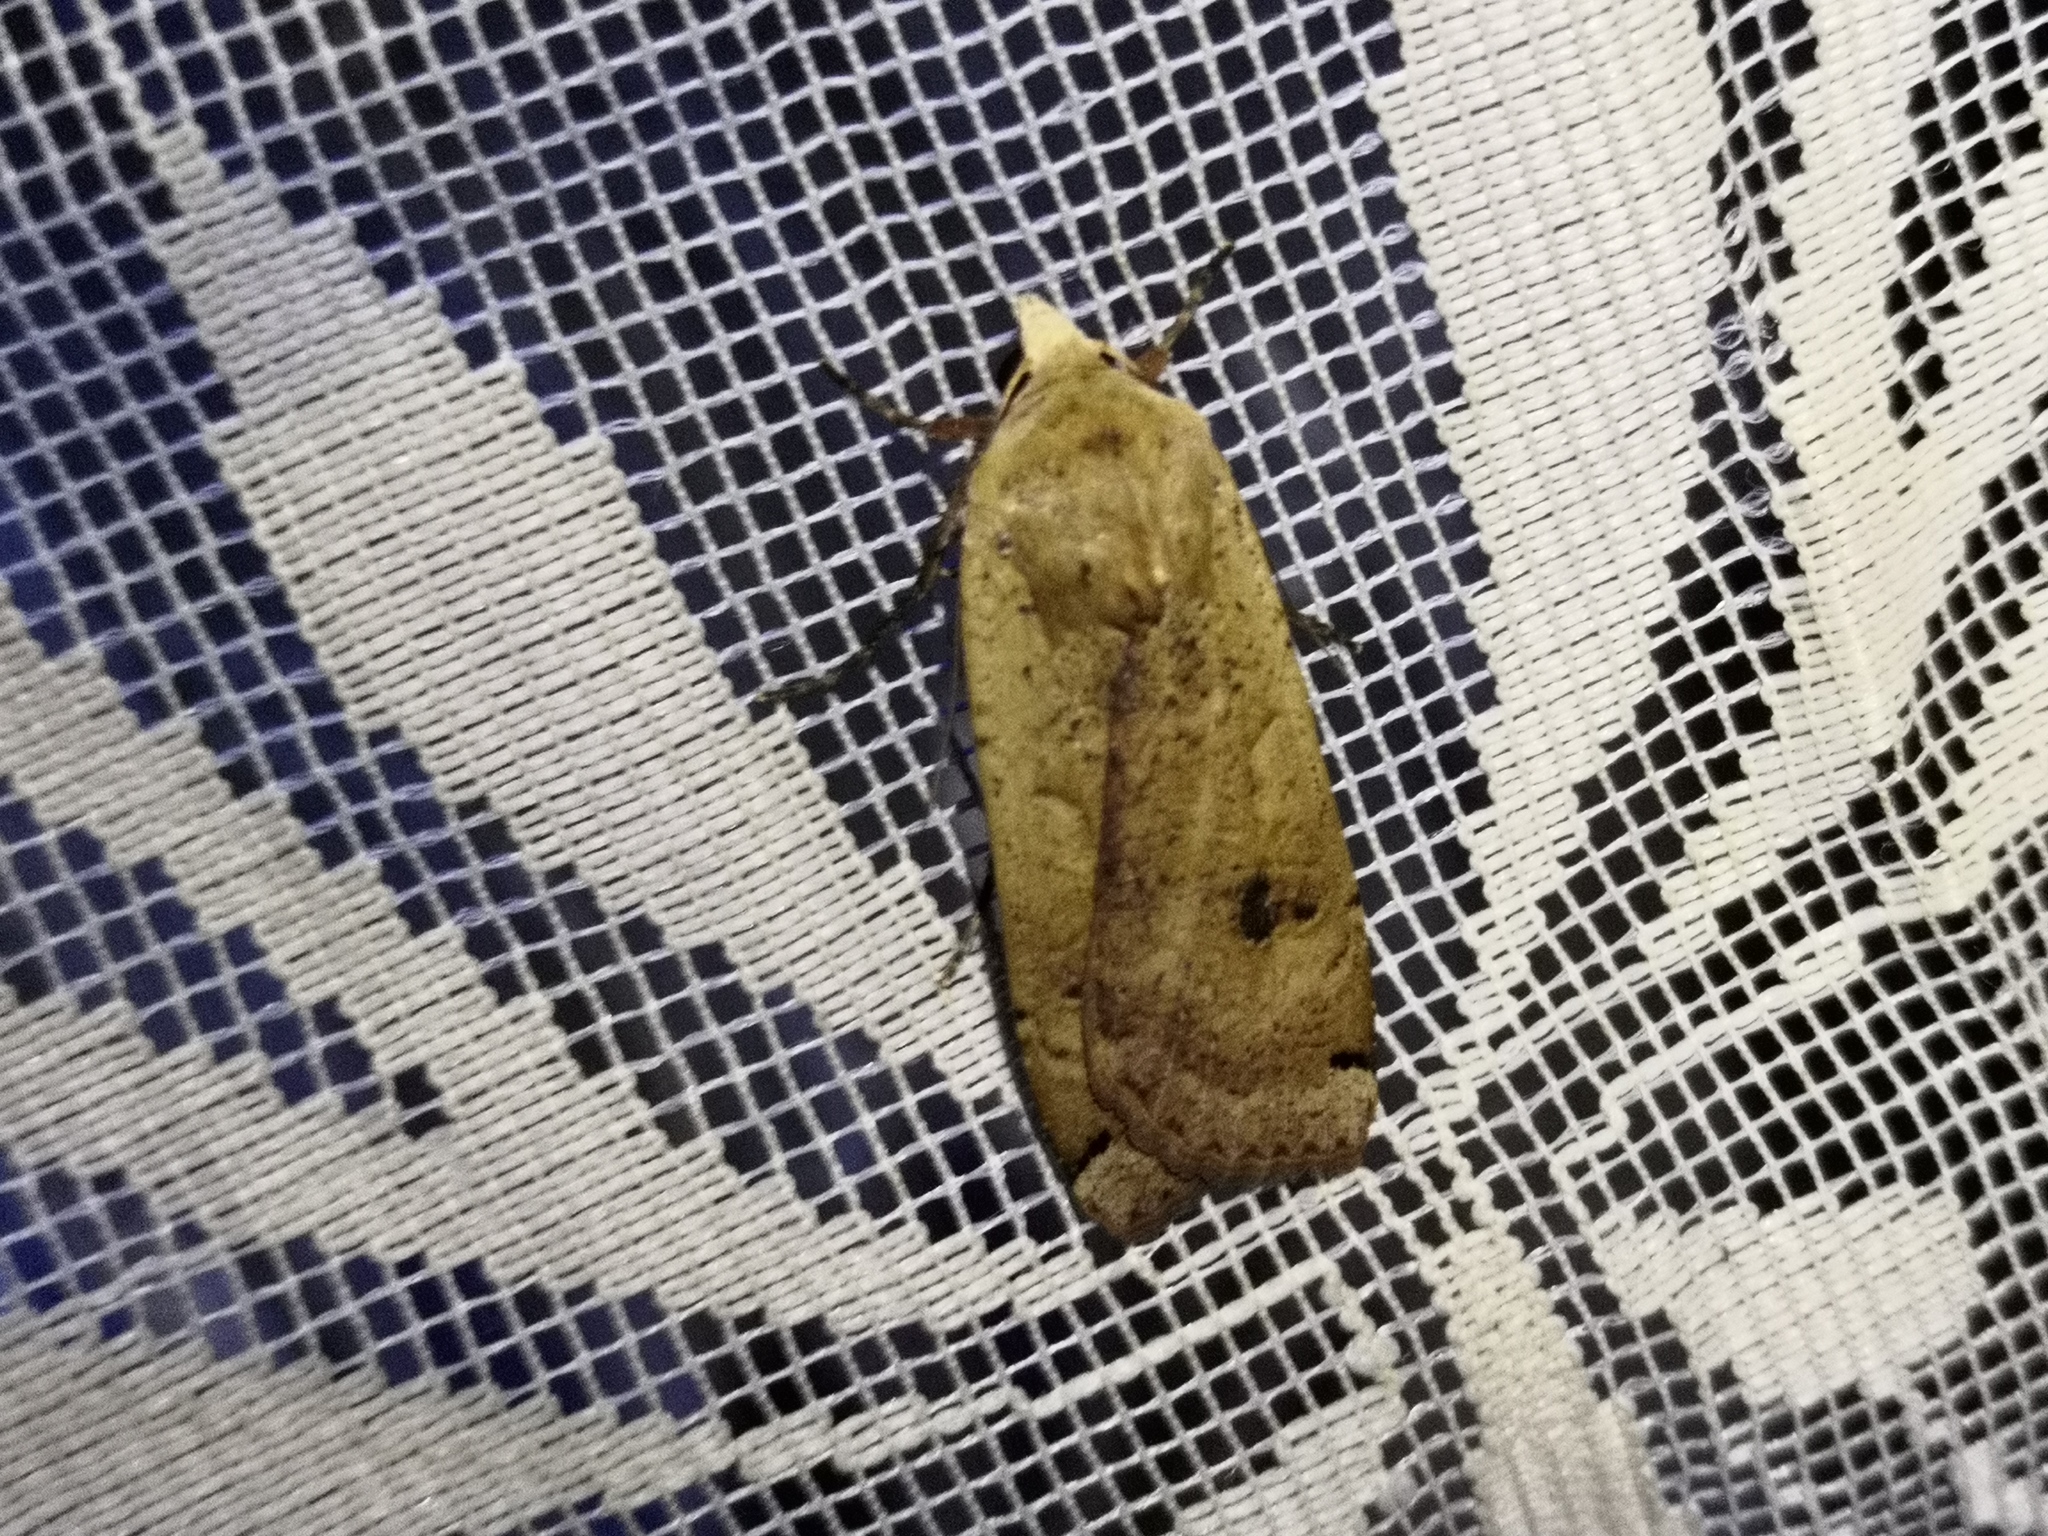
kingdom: Animalia
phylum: Arthropoda
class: Insecta
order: Lepidoptera
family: Noctuidae
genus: Noctua
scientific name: Noctua pronuba
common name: Large yellow underwing
